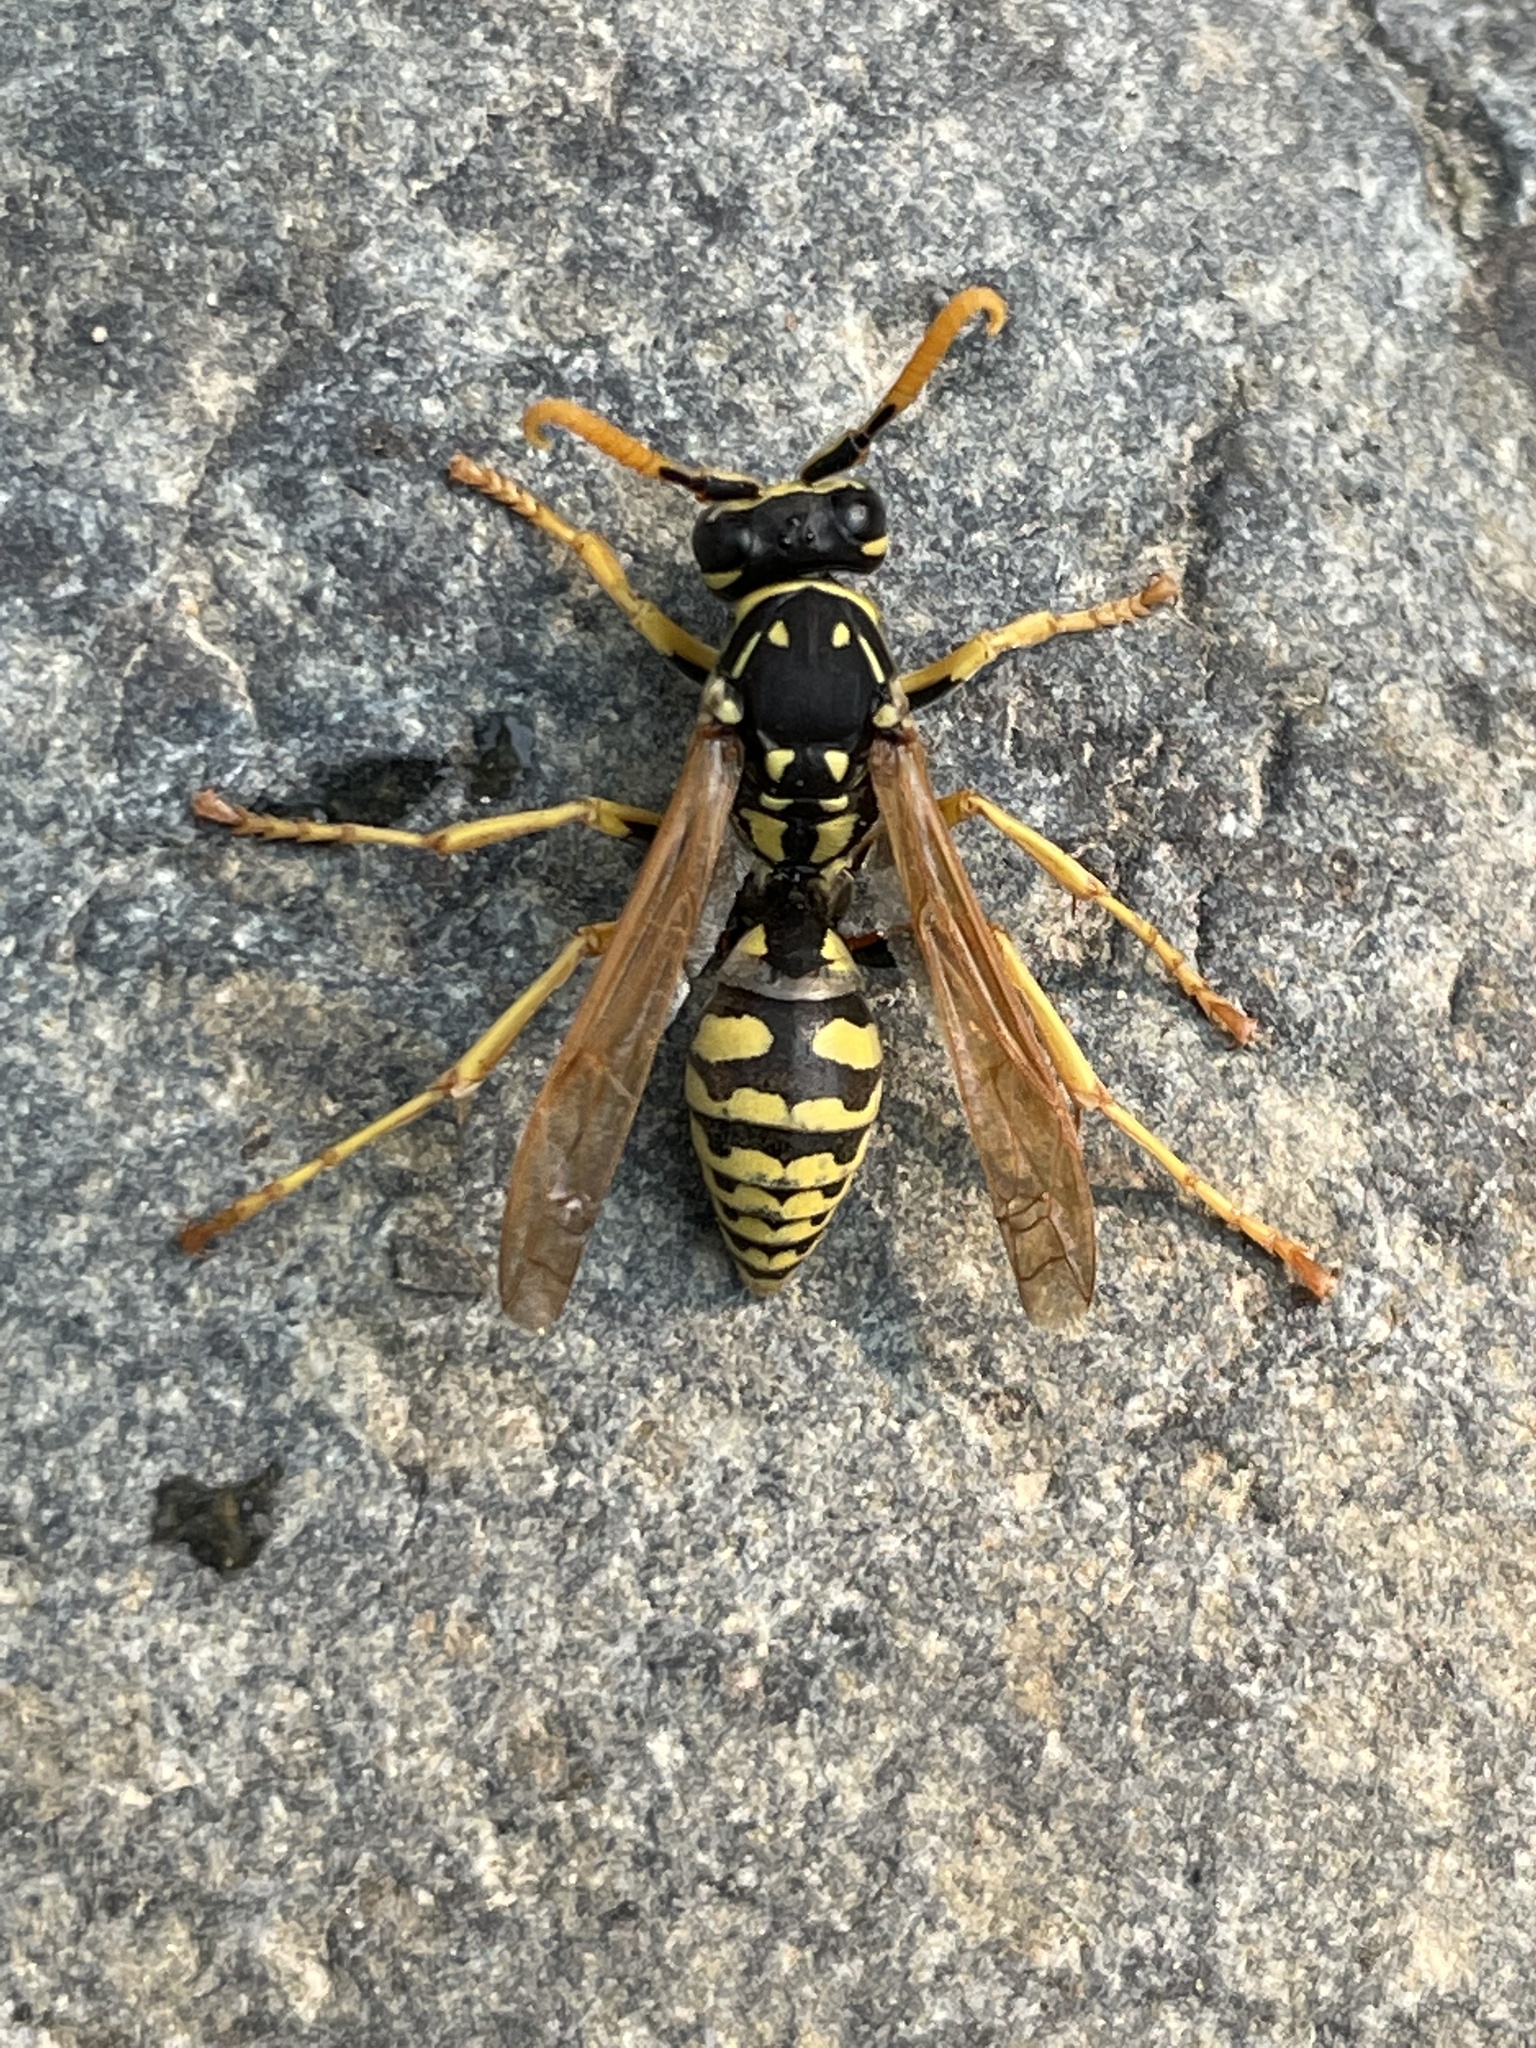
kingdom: Animalia
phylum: Arthropoda
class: Insecta
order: Hymenoptera
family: Eumenidae
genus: Polistes
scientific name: Polistes dominula
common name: Paper wasp
